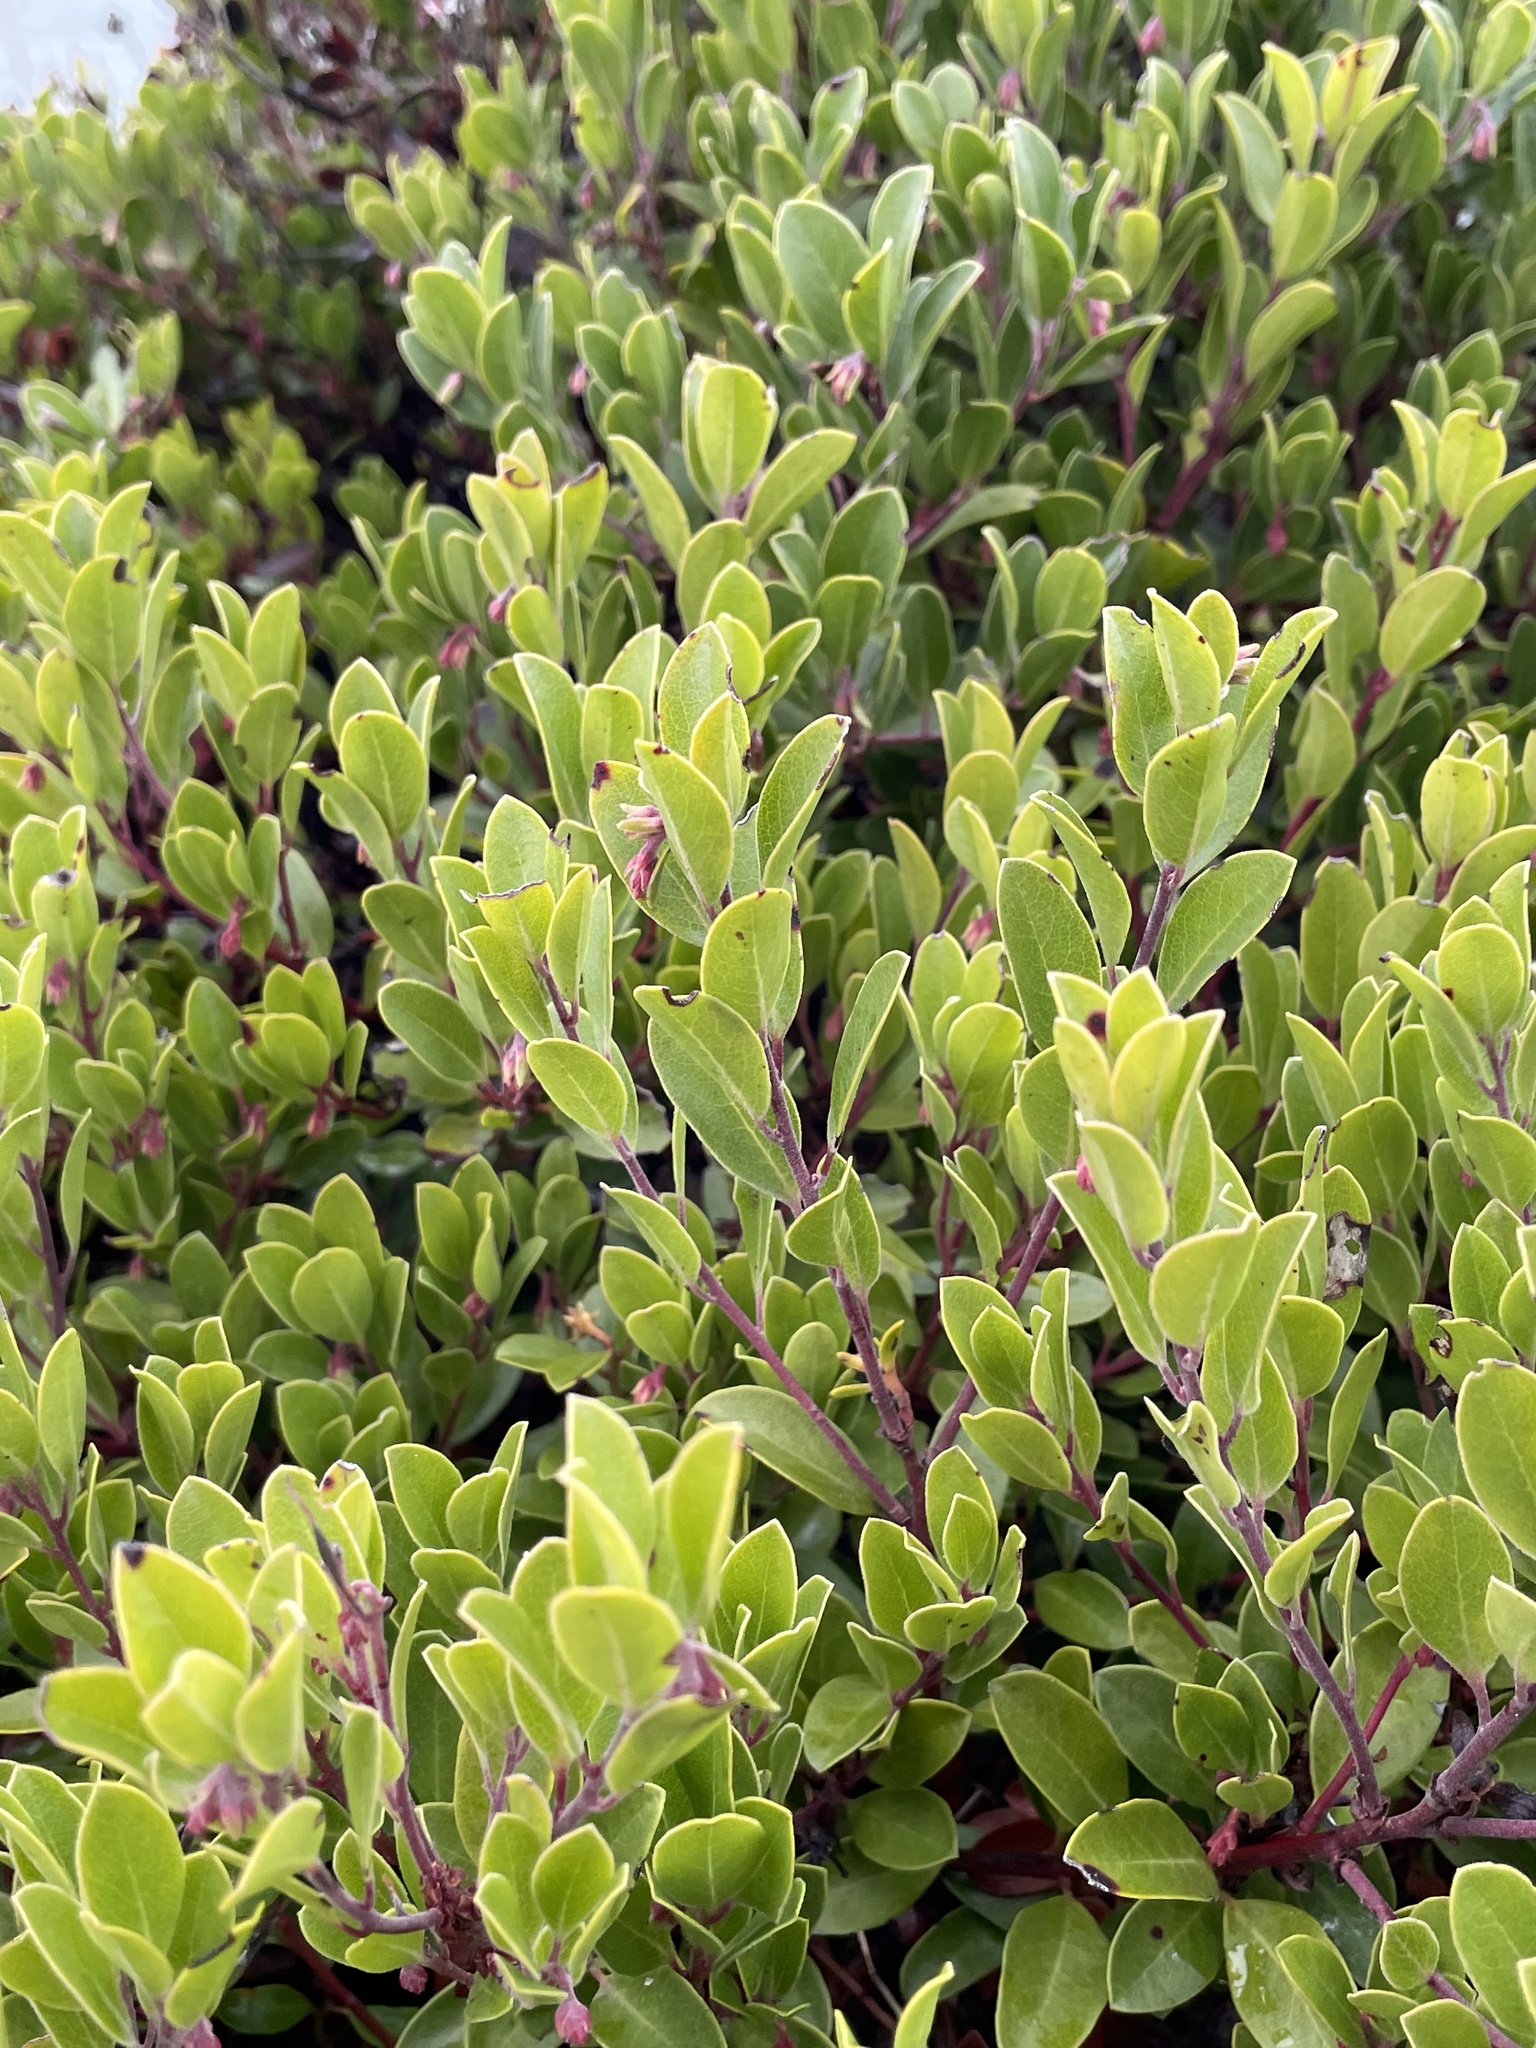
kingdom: Plantae
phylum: Tracheophyta
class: Magnoliopsida
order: Ericales
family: Ericaceae
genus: Arctostaphylos
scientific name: Arctostaphylos franciscana
